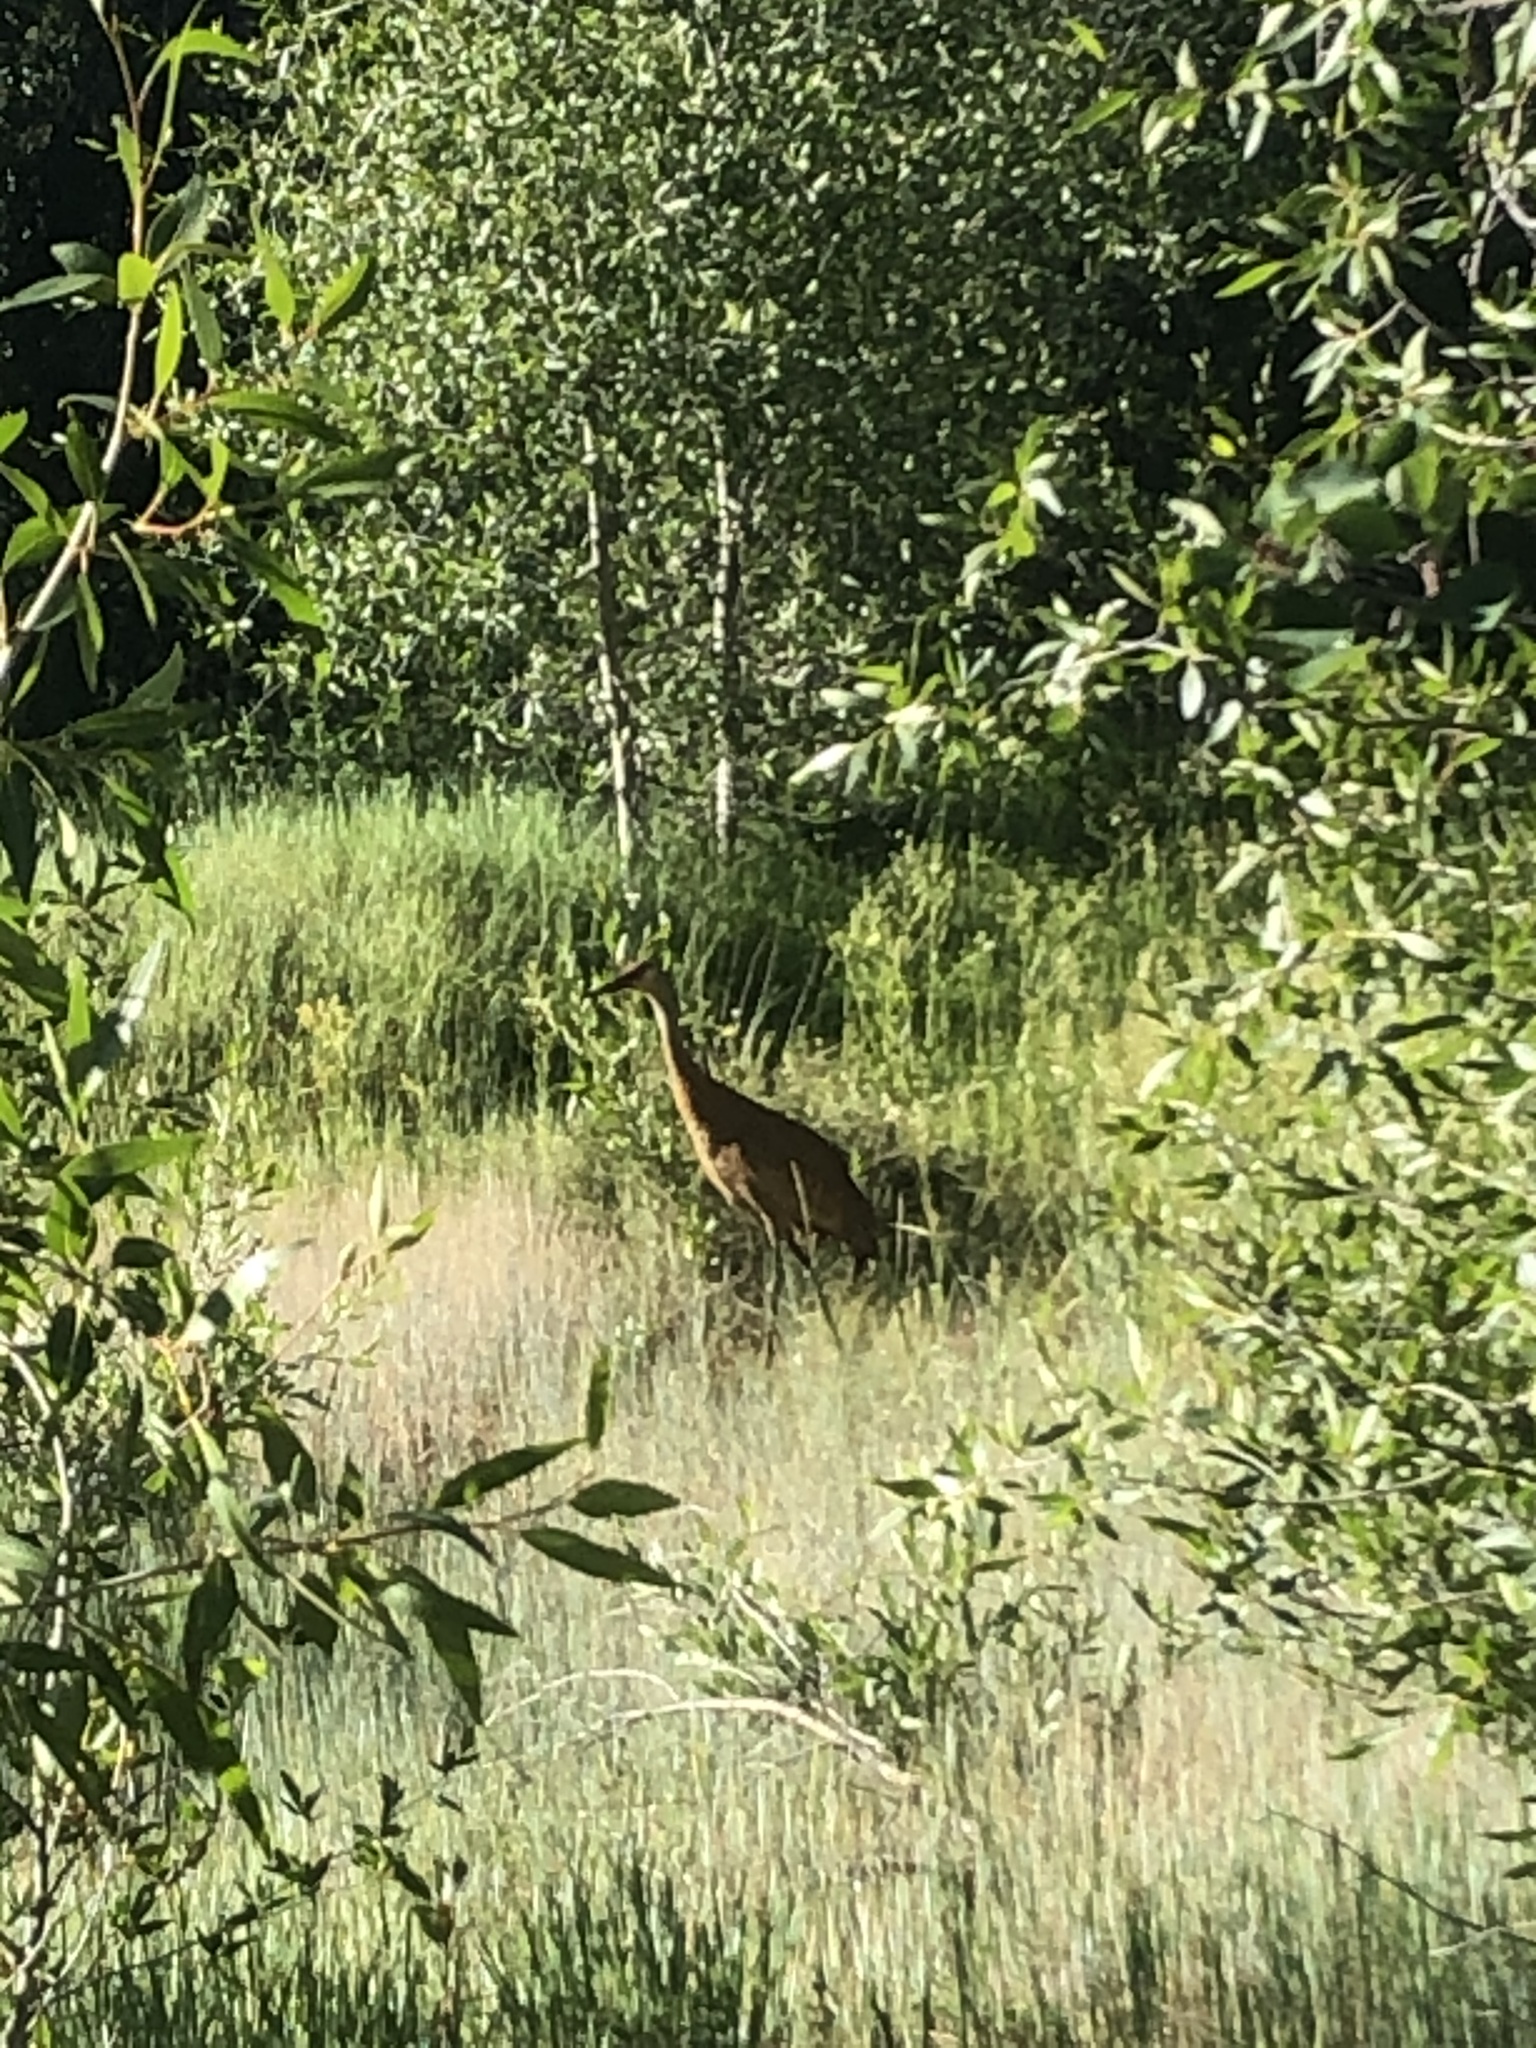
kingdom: Animalia
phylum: Chordata
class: Aves
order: Gruiformes
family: Gruidae
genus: Grus
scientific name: Grus canadensis
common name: Sandhill crane
